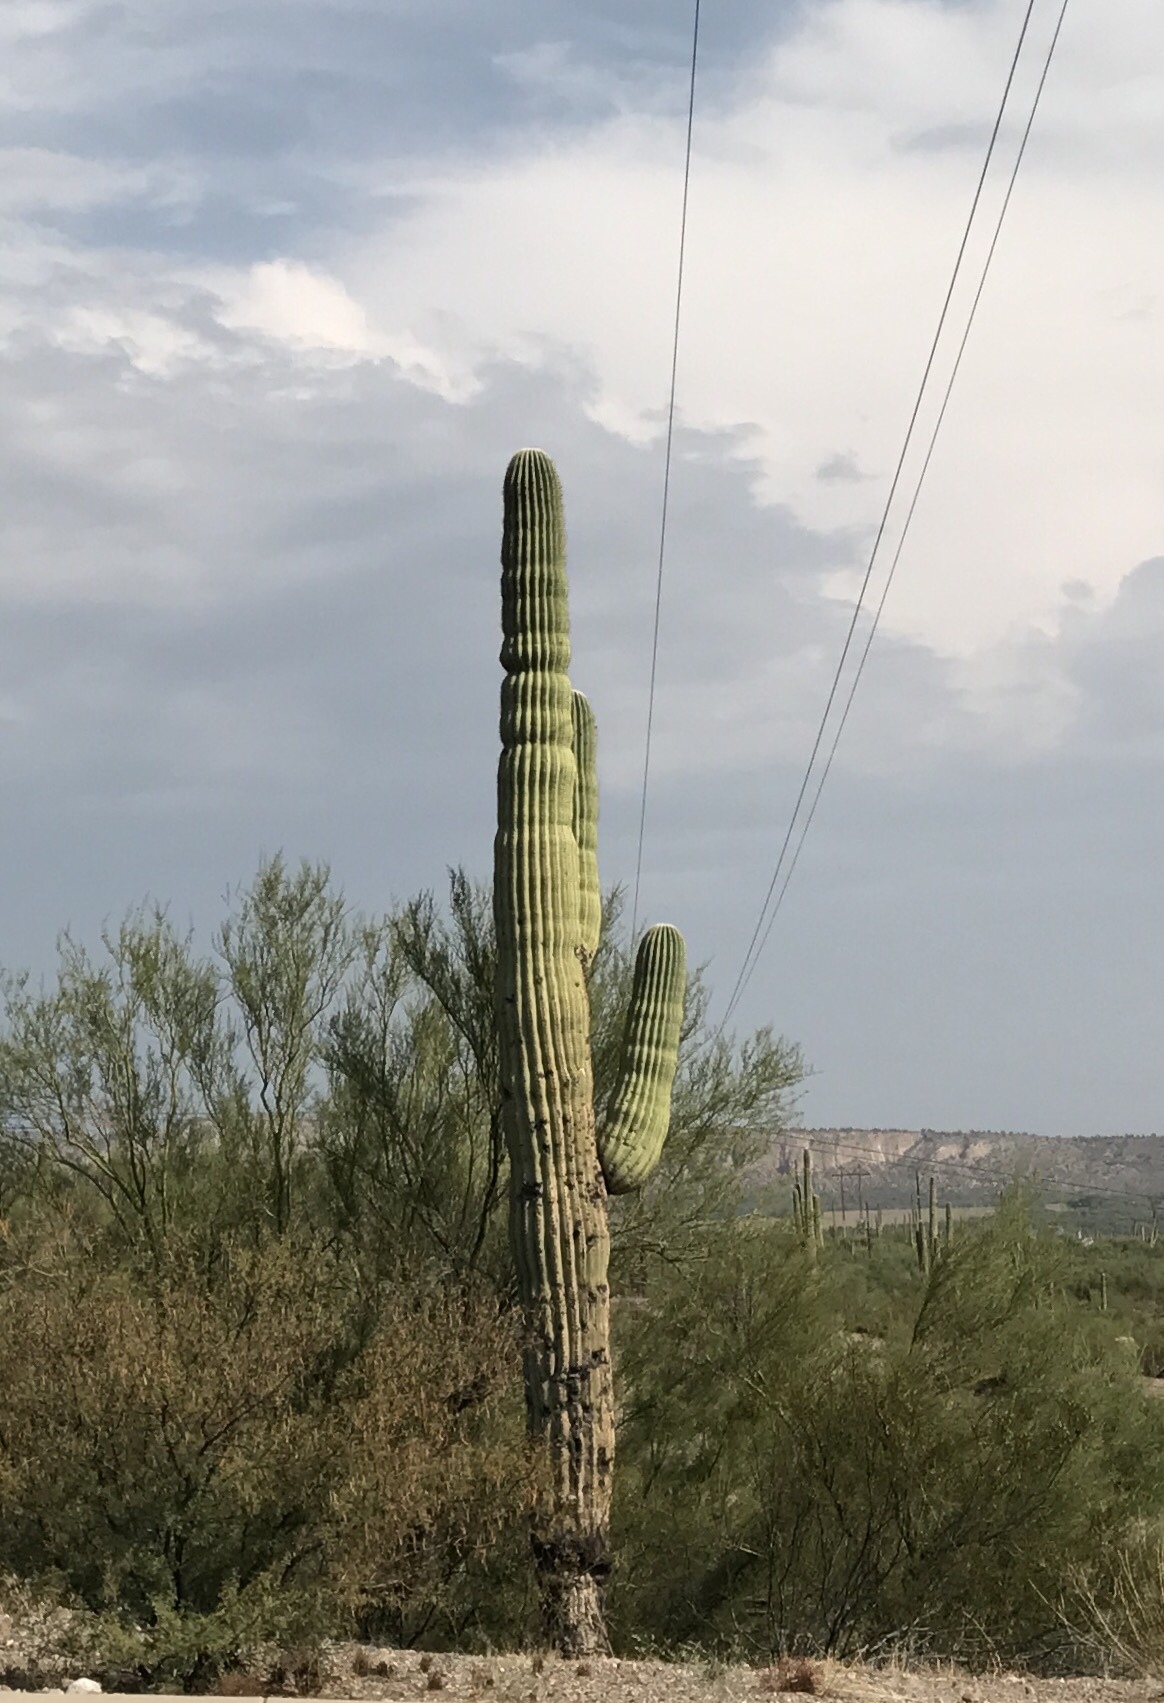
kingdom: Plantae
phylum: Tracheophyta
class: Magnoliopsida
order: Caryophyllales
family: Cactaceae
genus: Carnegiea
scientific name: Carnegiea gigantea
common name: Saguaro
